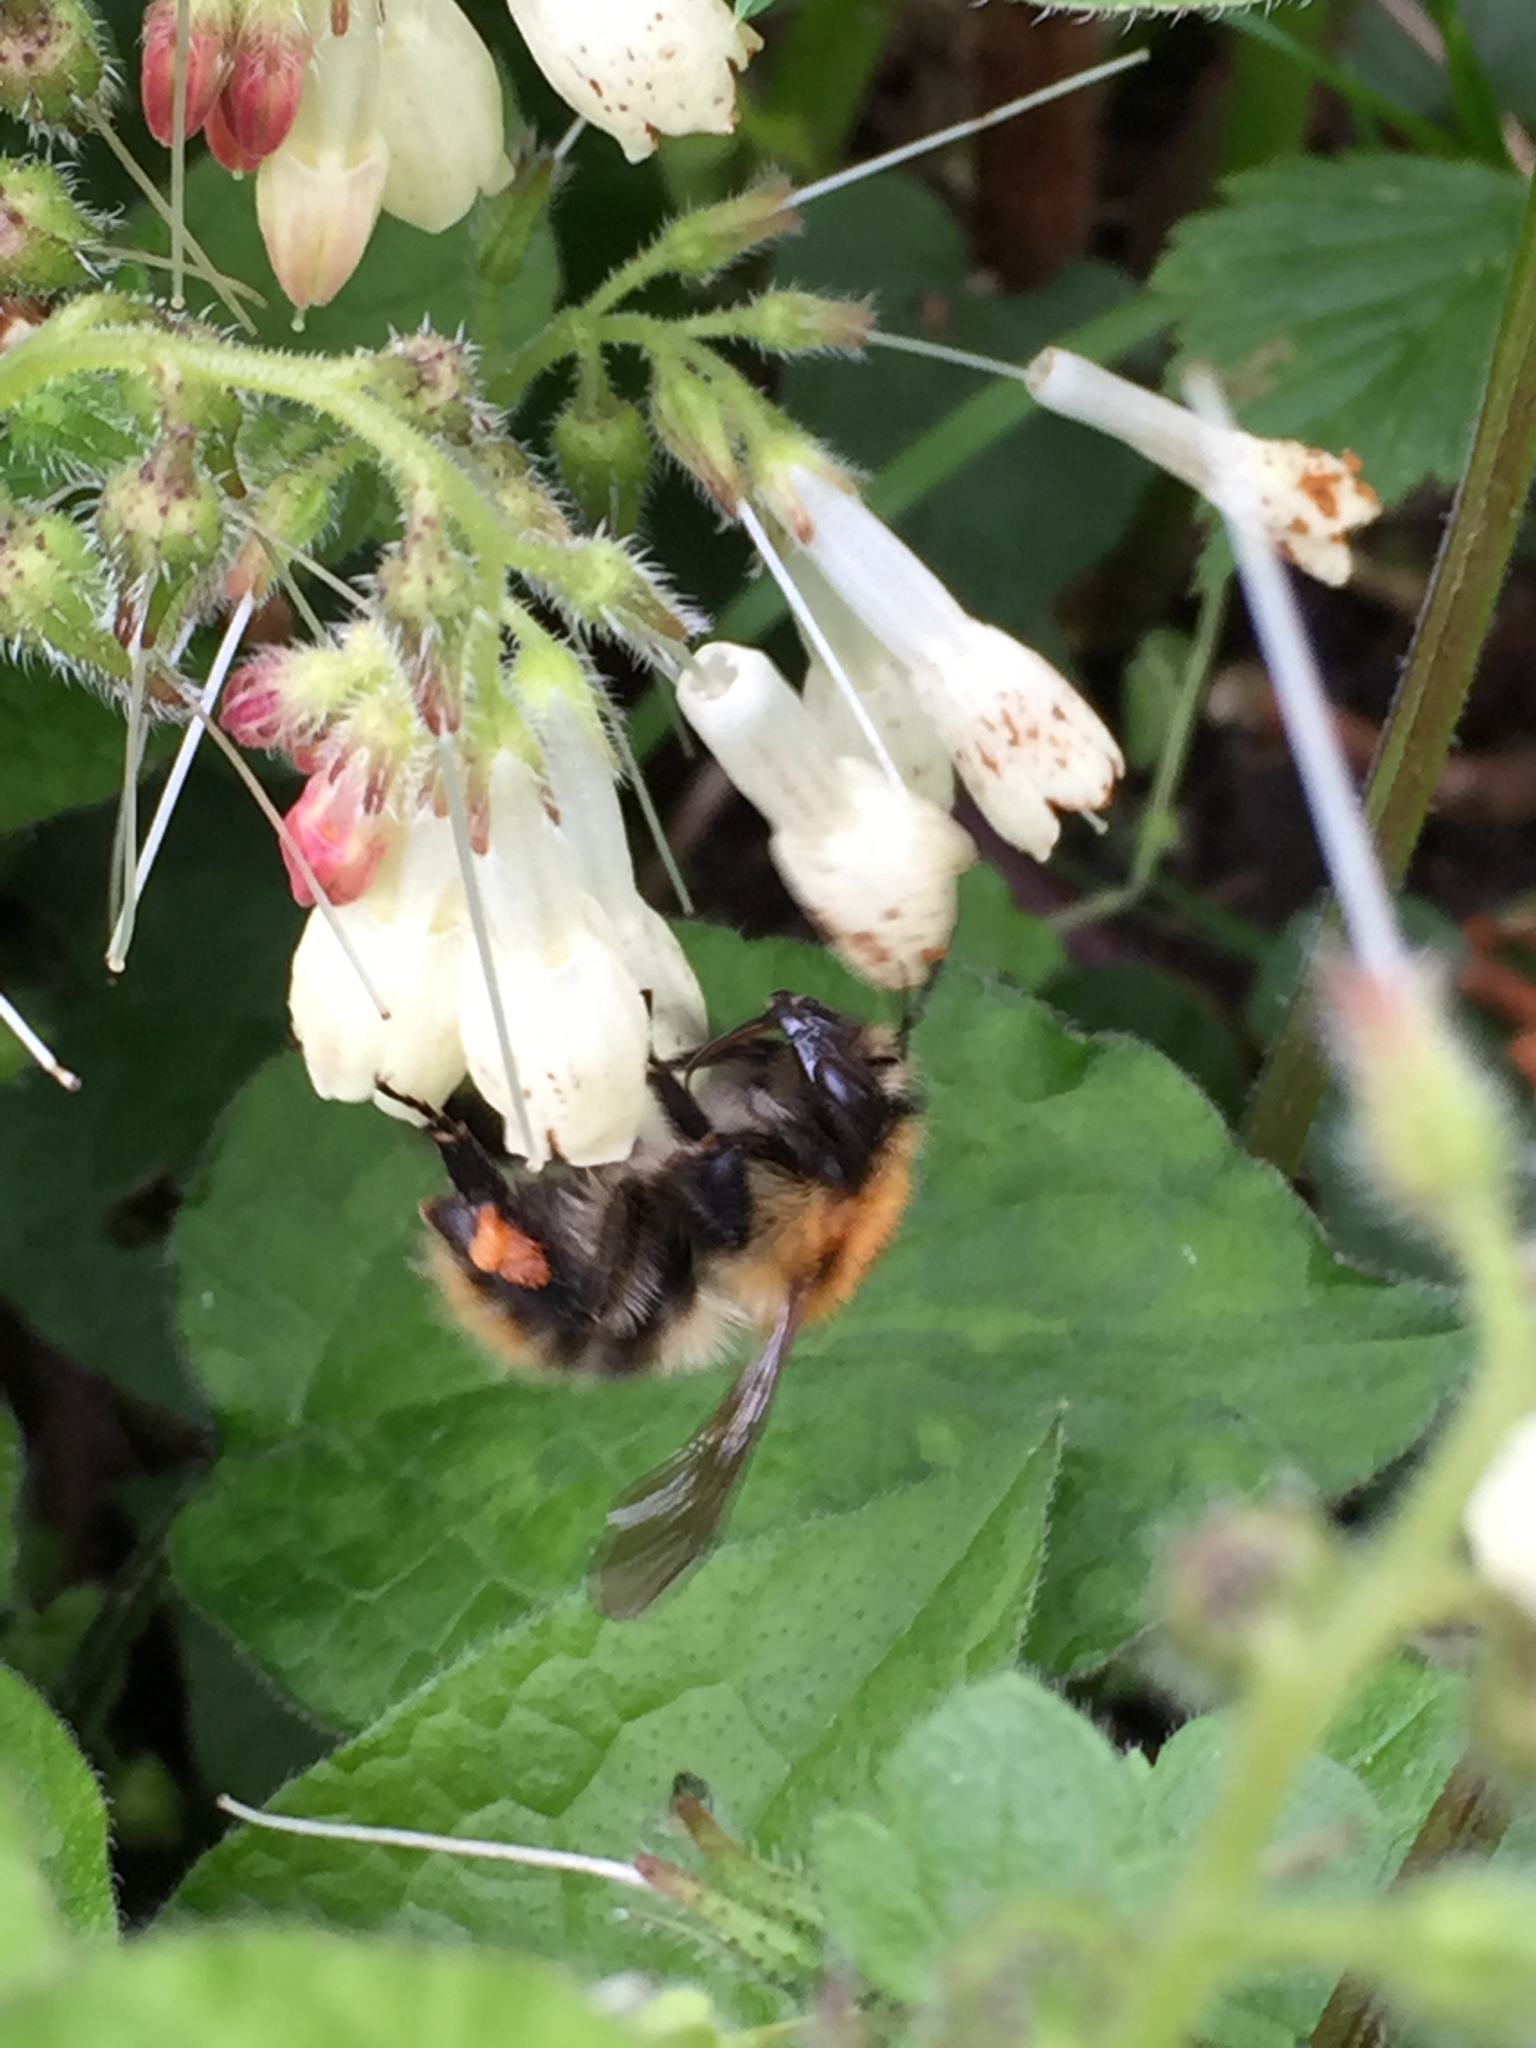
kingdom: Animalia
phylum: Arthropoda
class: Insecta
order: Hymenoptera
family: Apidae
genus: Bombus
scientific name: Bombus pascuorum
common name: Common carder bee
